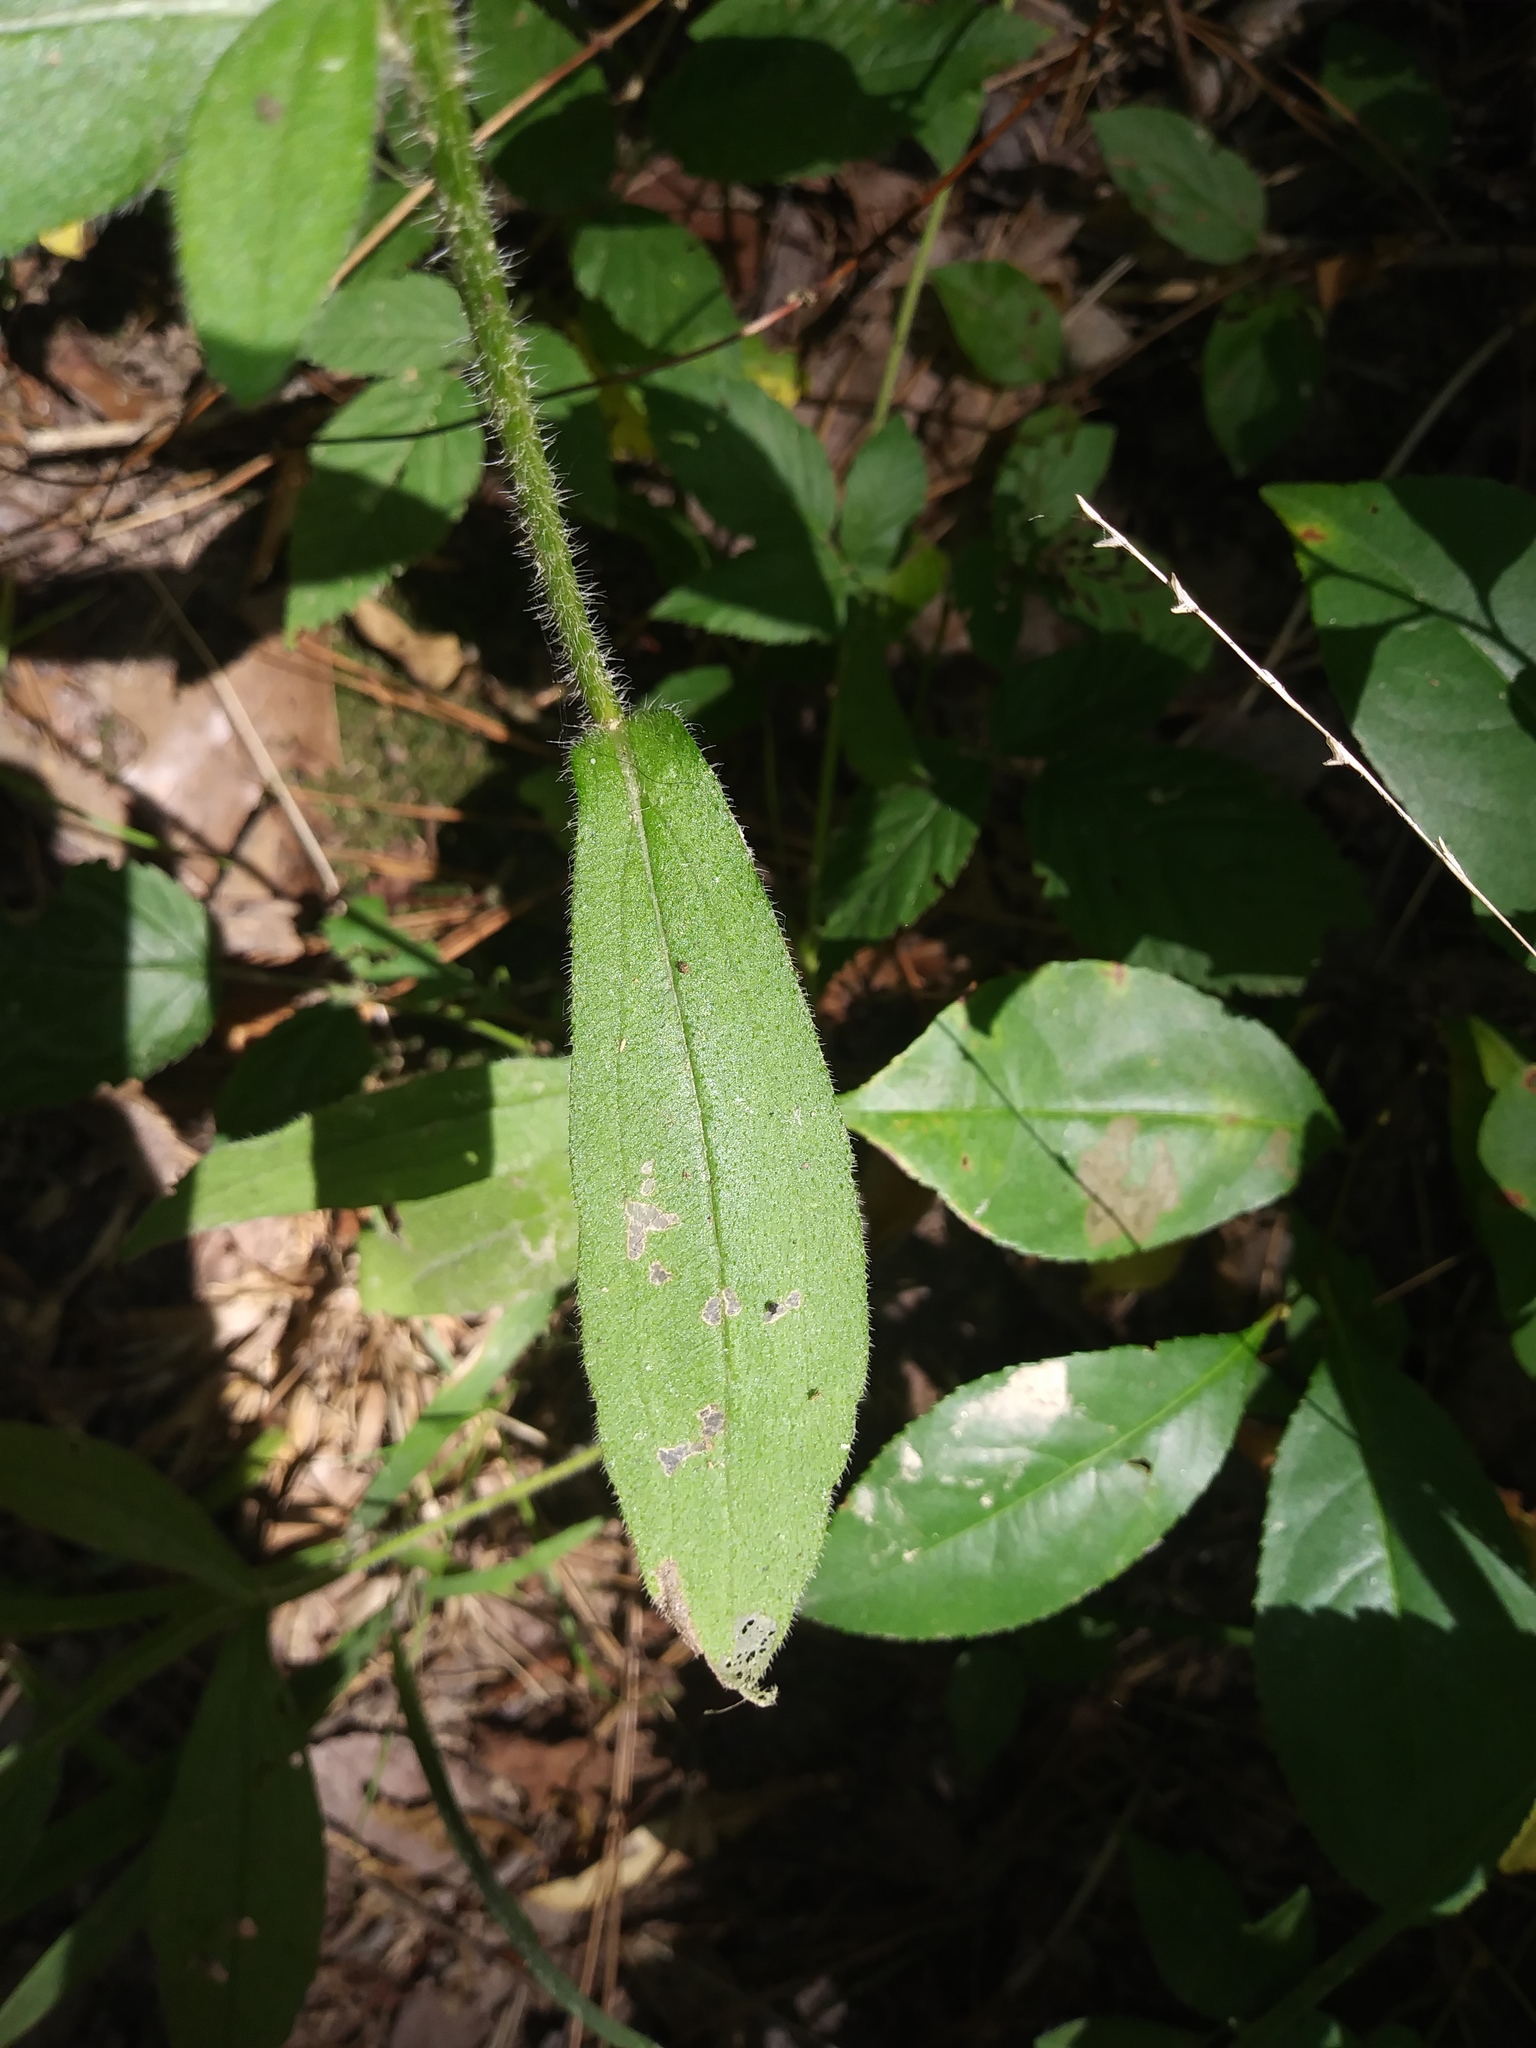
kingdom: Plantae
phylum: Tracheophyta
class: Magnoliopsida
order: Asterales
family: Asteraceae
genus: Rudbeckia
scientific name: Rudbeckia hirta
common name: Black-eyed-susan
